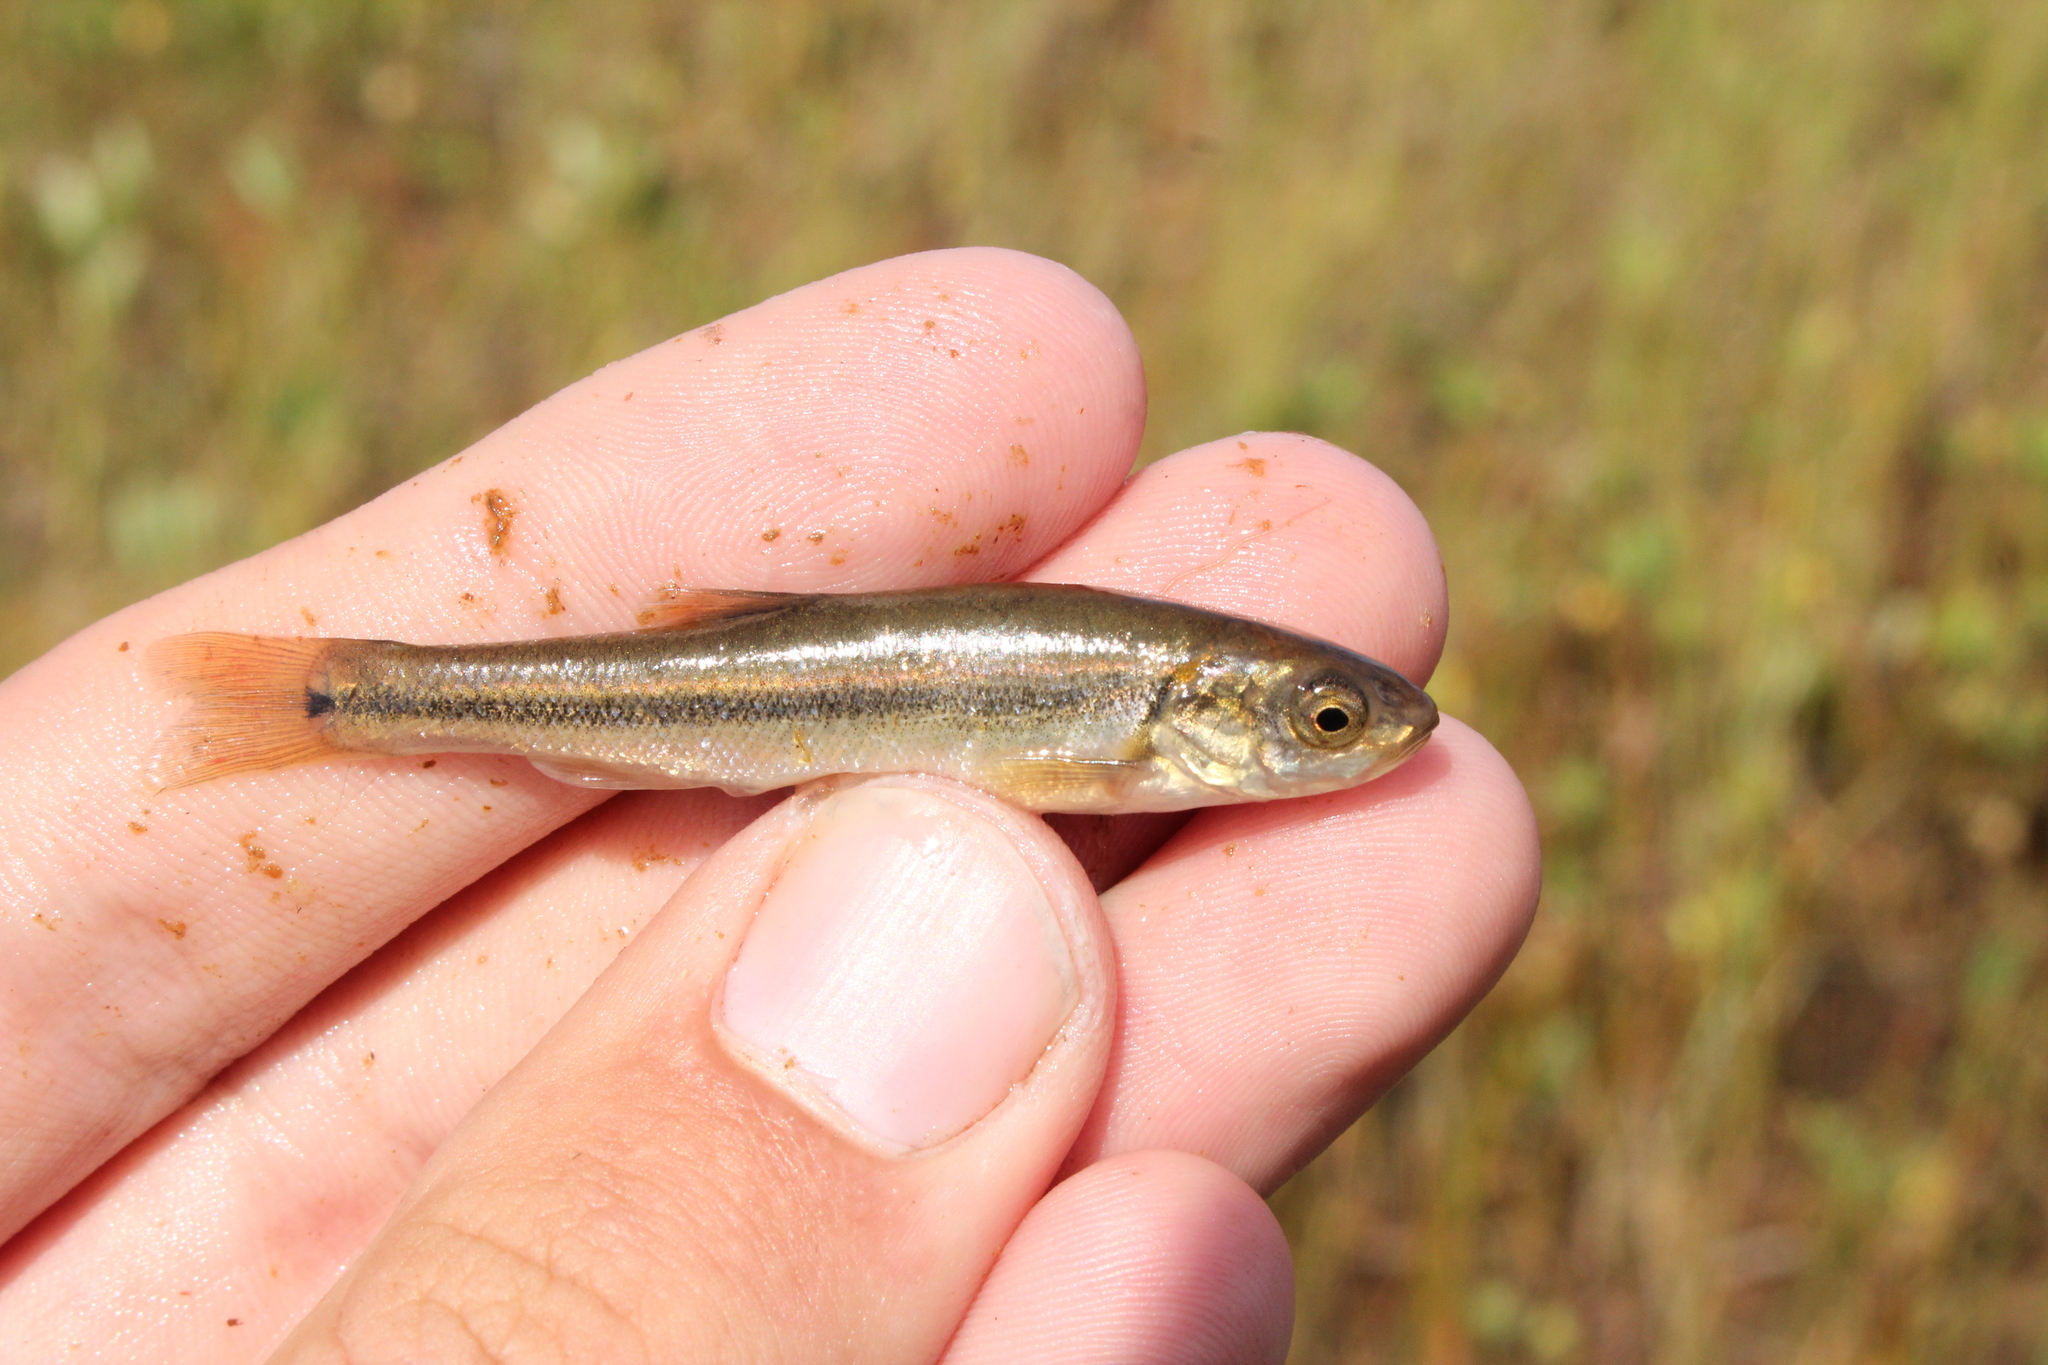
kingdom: Animalia
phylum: Chordata
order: Cypriniformes
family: Cyprinidae
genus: Margariscus
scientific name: Margariscus nachtriebi
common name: Northern pearl dace
